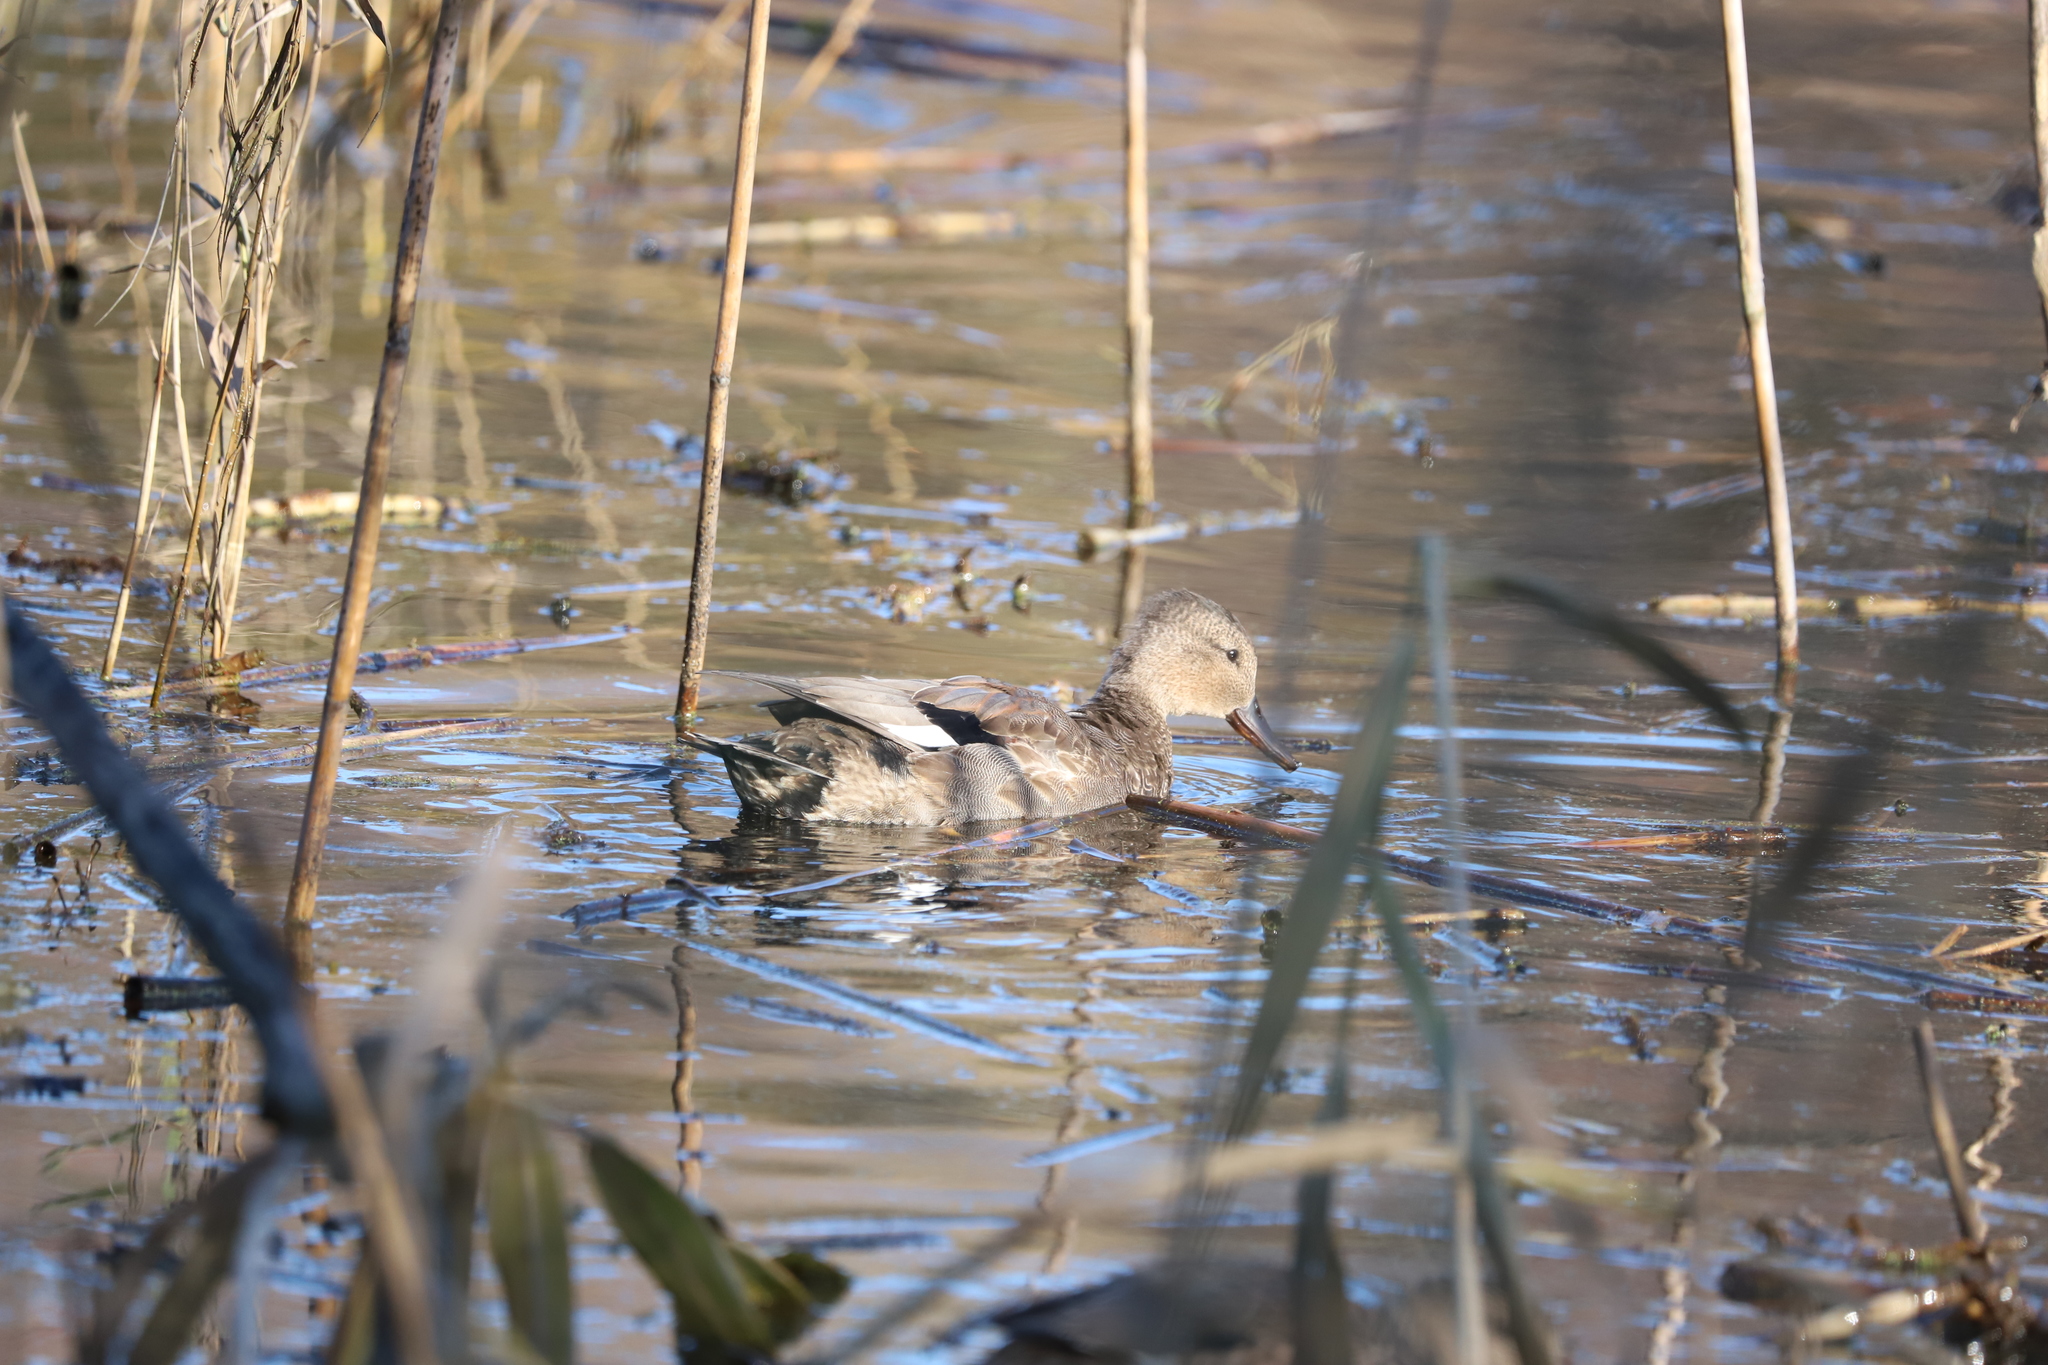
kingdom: Animalia
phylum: Chordata
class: Aves
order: Anseriformes
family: Anatidae
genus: Mareca
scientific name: Mareca strepera
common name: Gadwall
